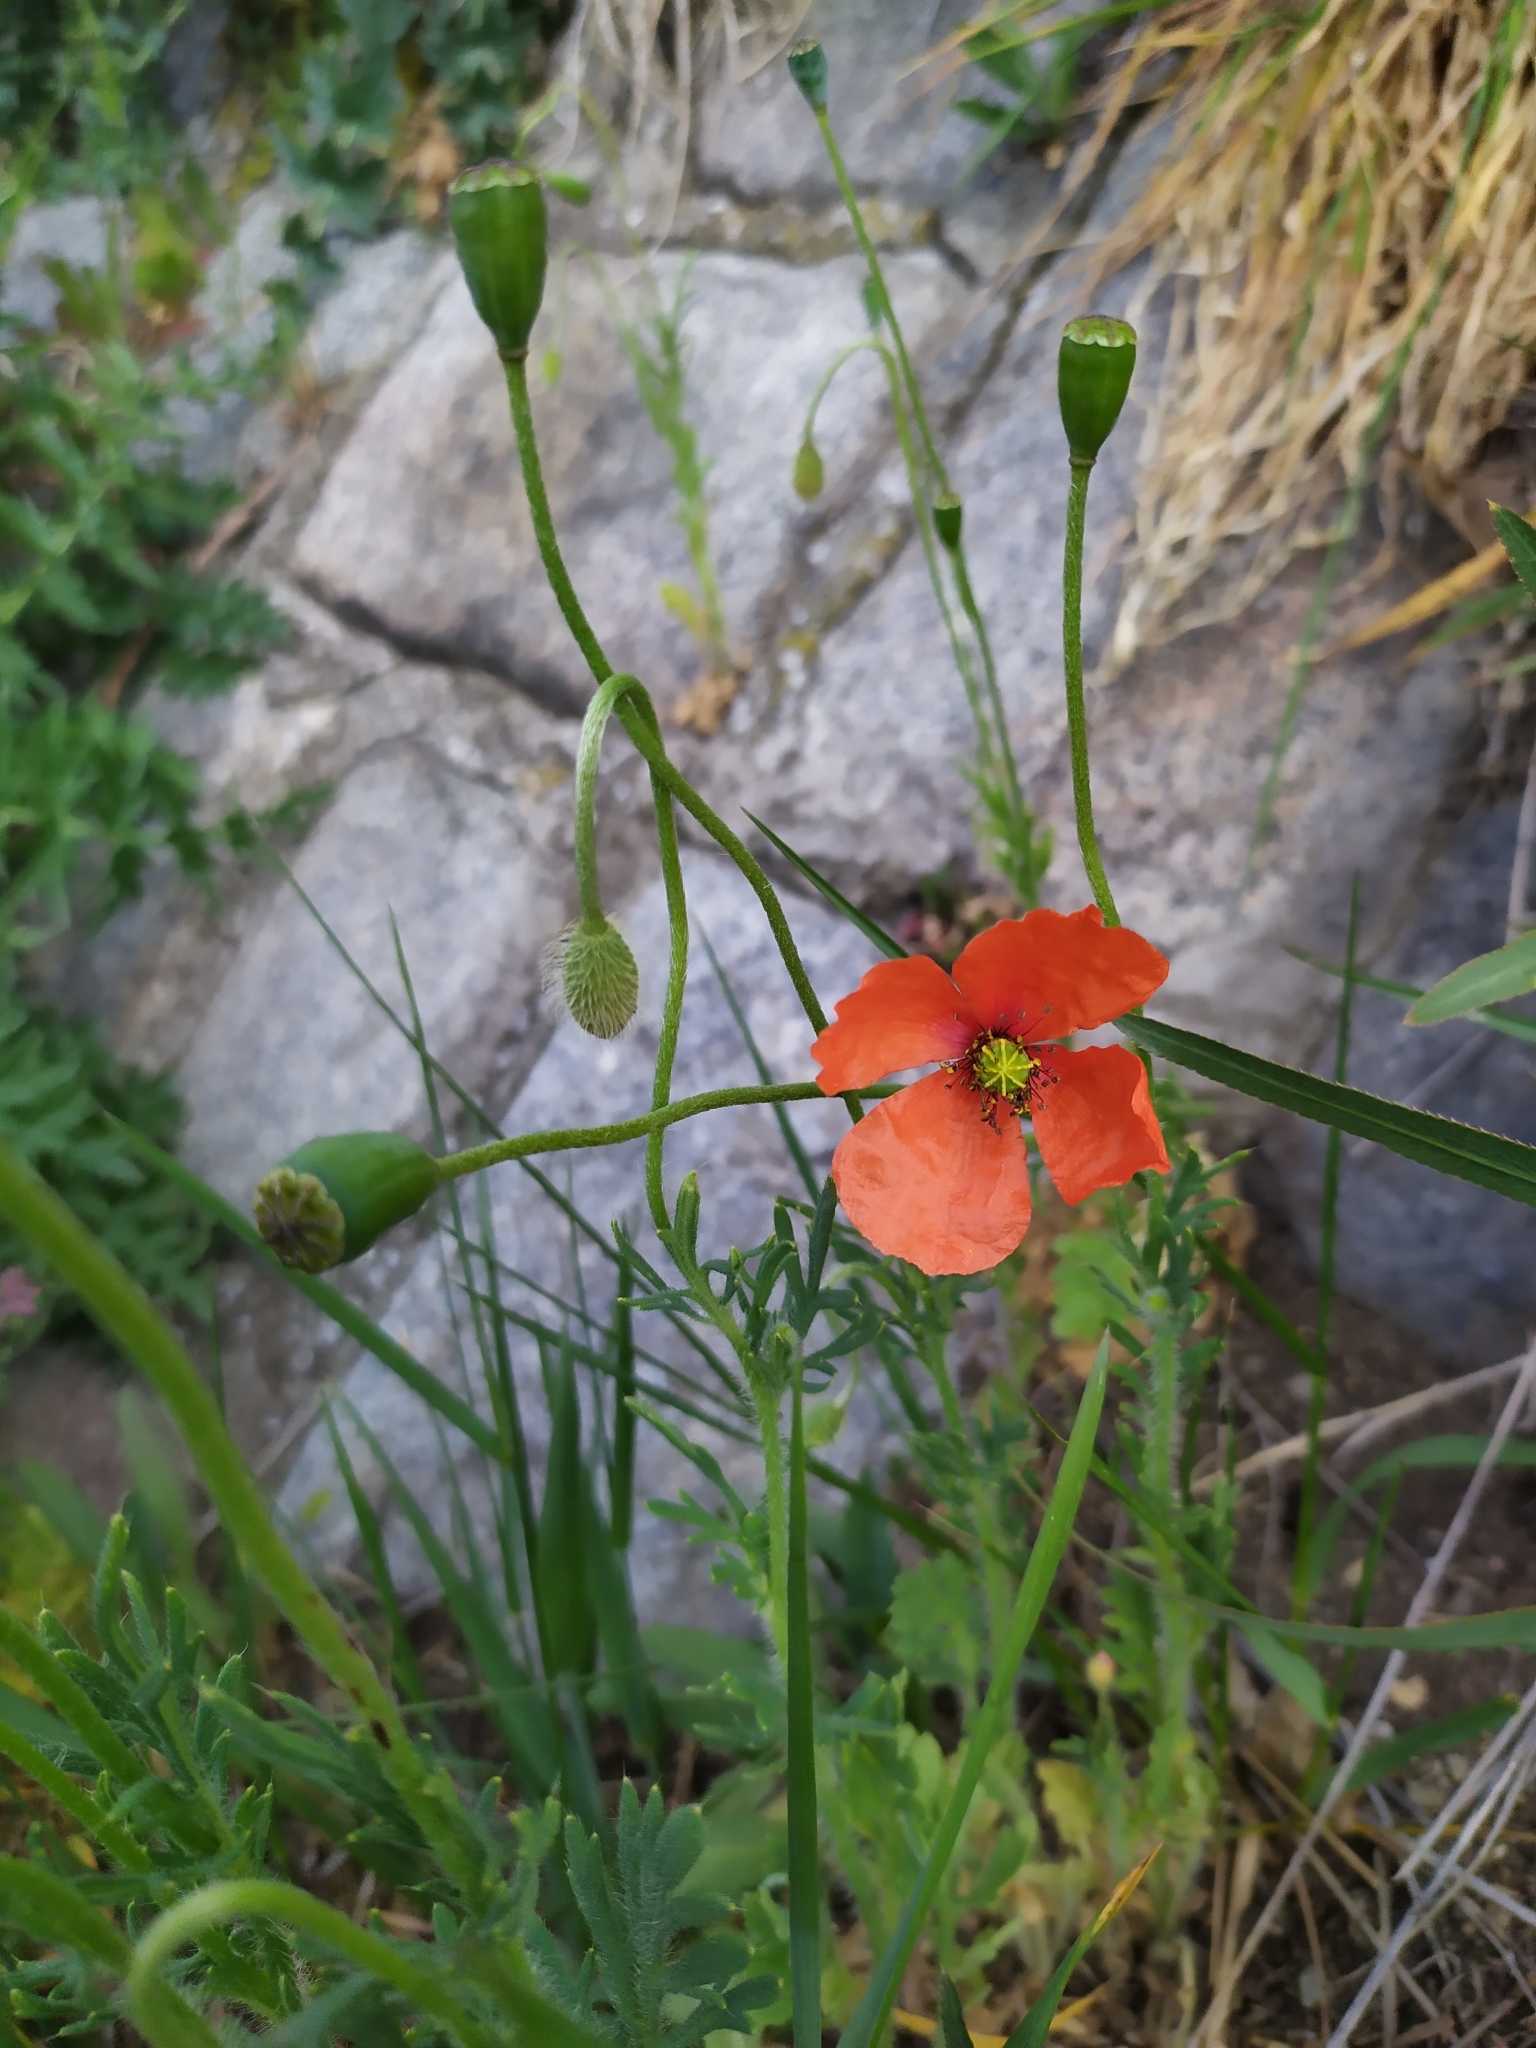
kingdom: Plantae
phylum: Tracheophyta
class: Magnoliopsida
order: Ranunculales
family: Papaveraceae
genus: Papaver
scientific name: Papaver dubium
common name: Long-headed poppy
